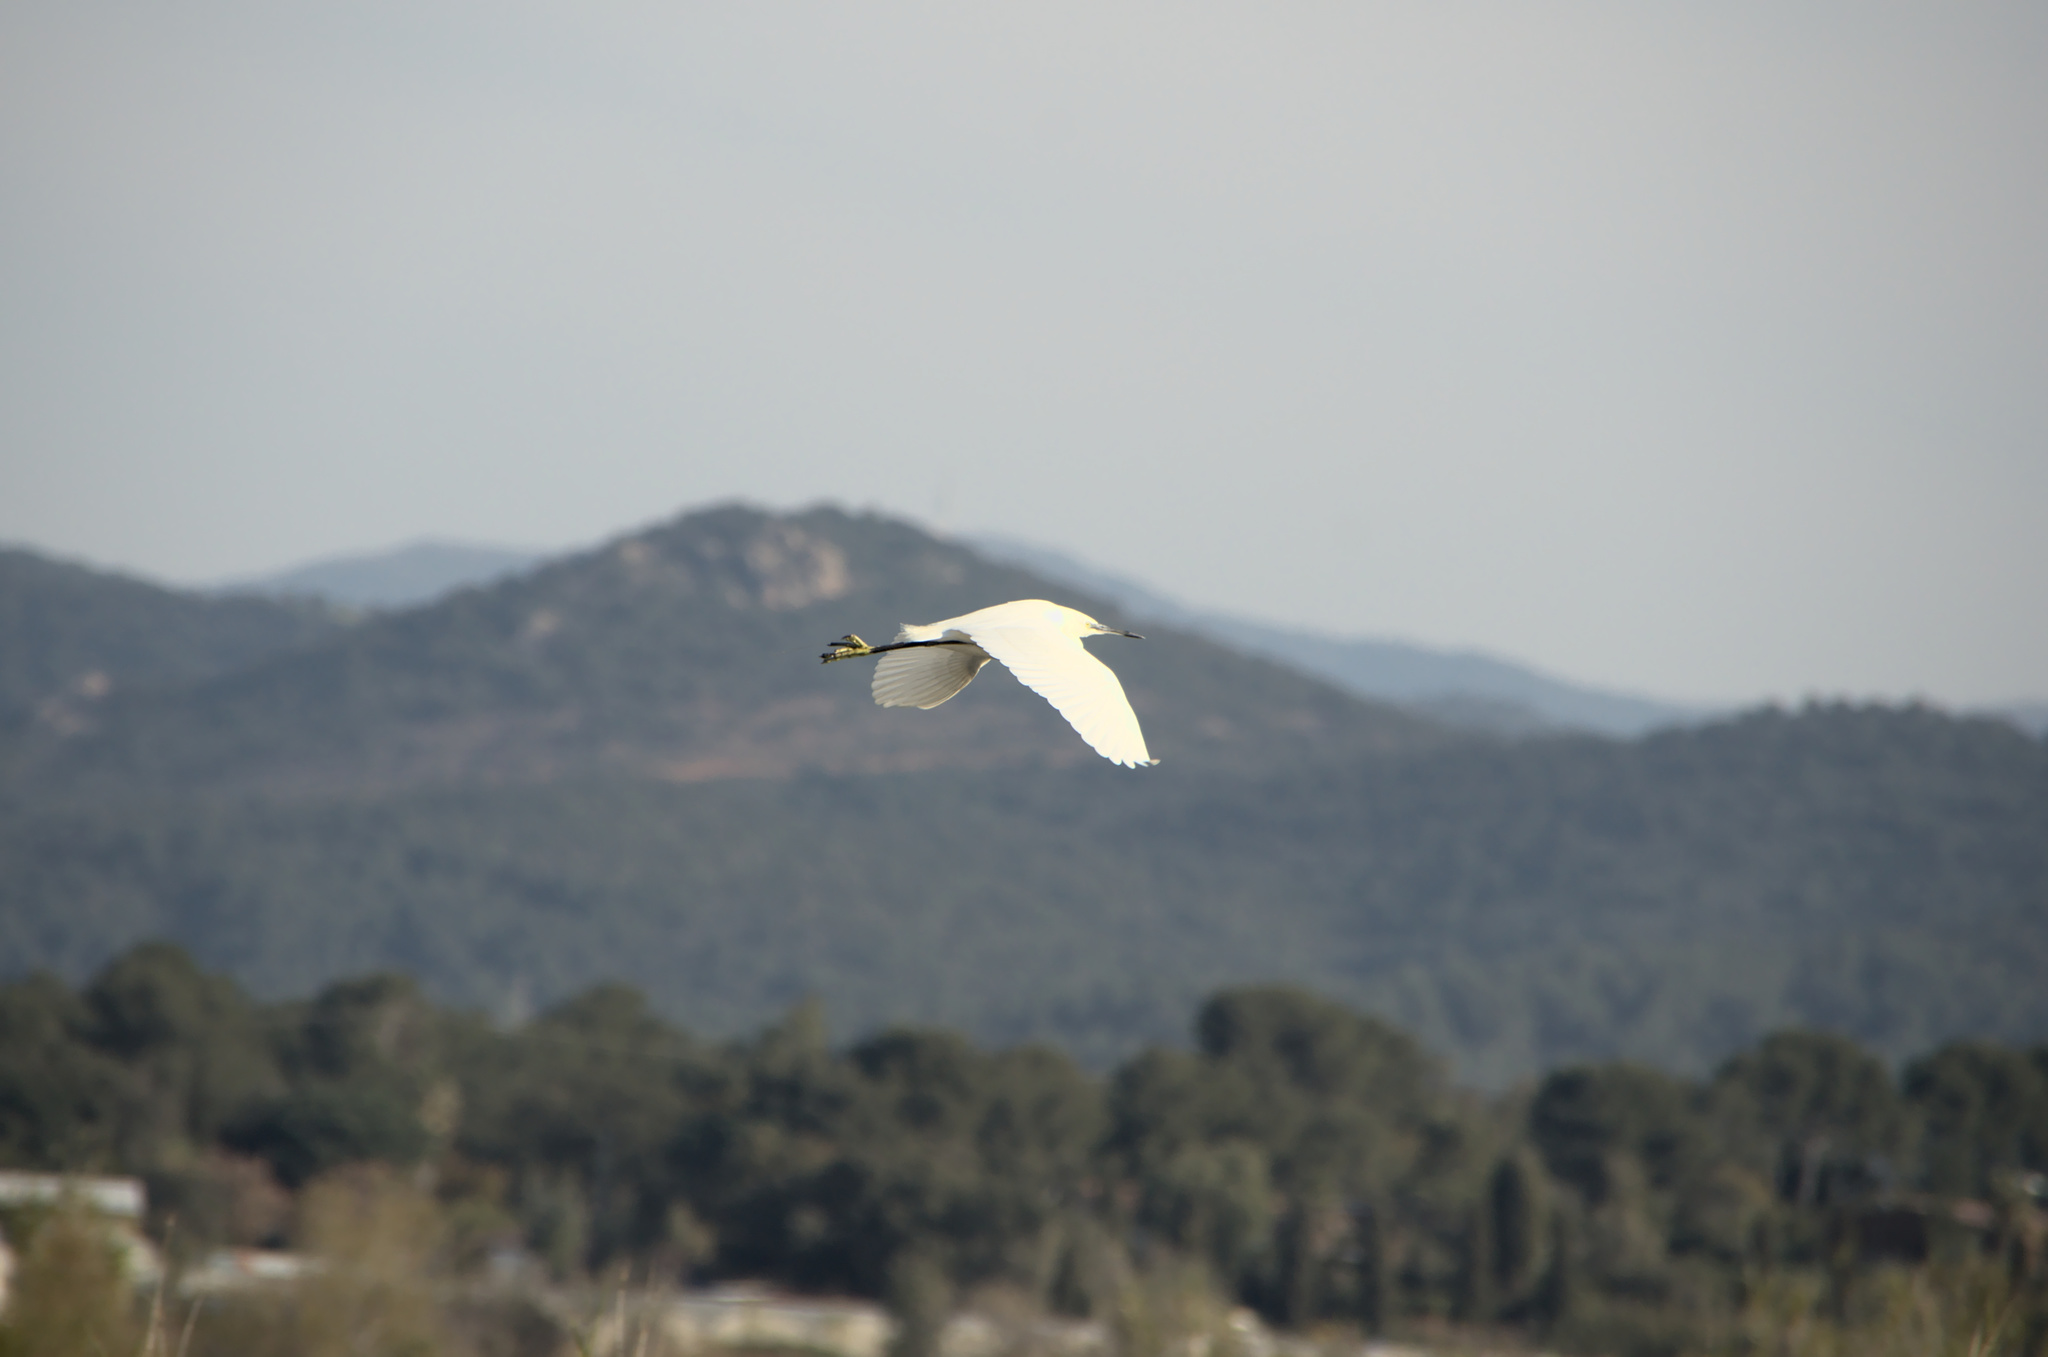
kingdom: Animalia
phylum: Chordata
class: Aves
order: Pelecaniformes
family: Ardeidae
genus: Egretta
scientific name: Egretta garzetta
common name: Little egret
